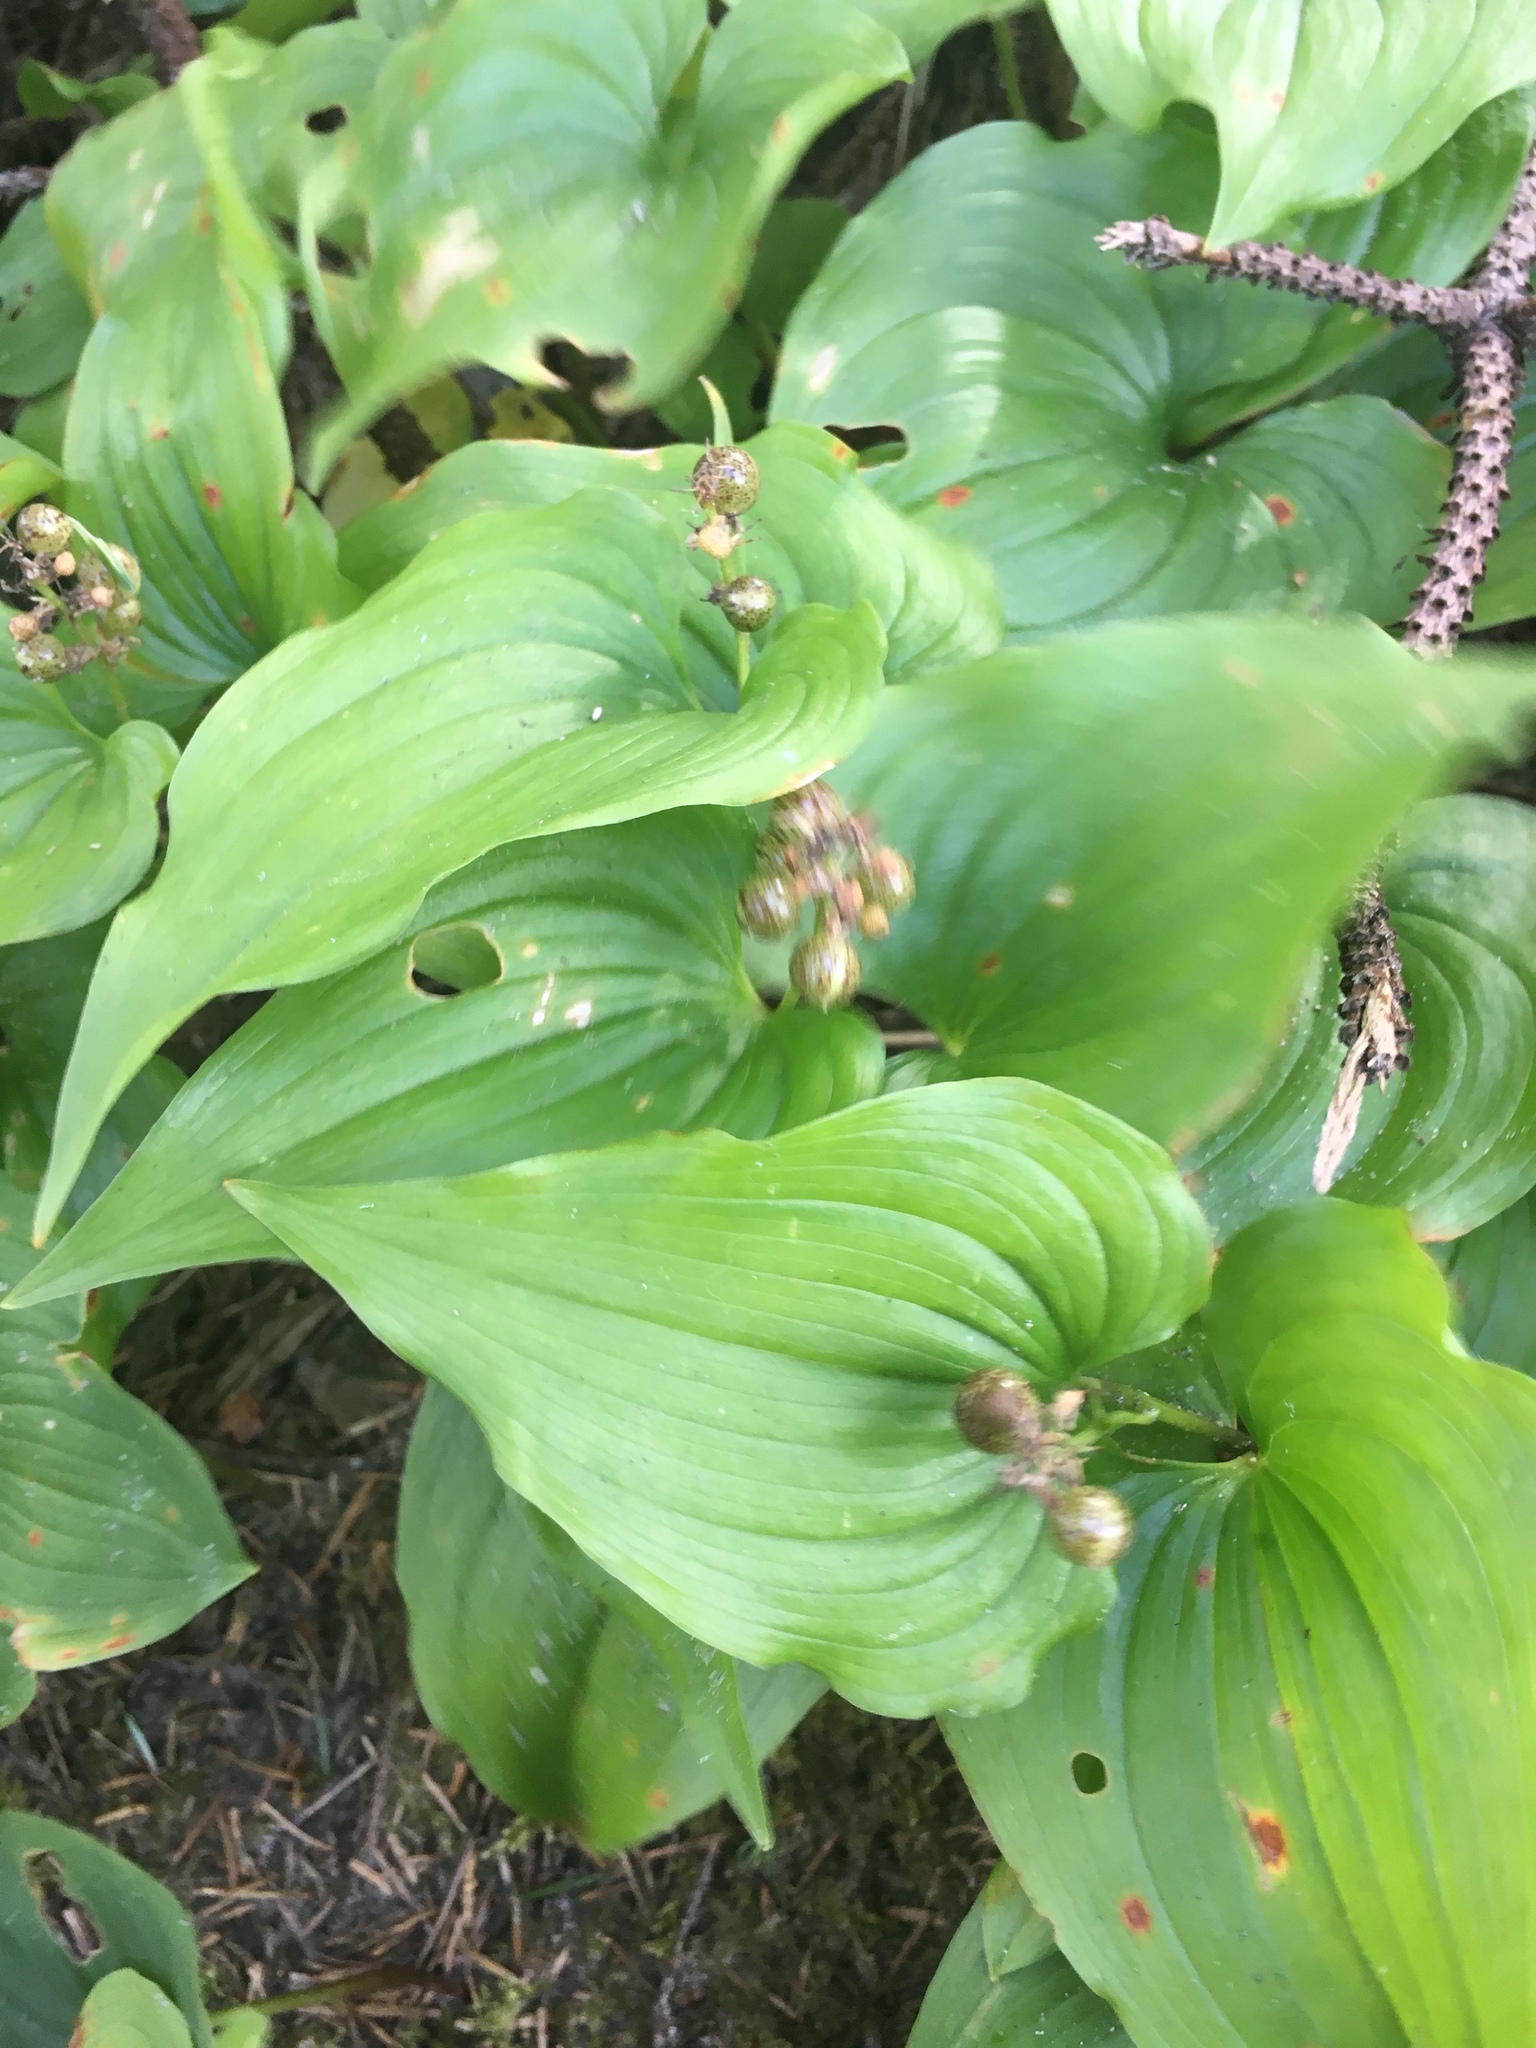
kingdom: Plantae
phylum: Tracheophyta
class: Liliopsida
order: Asparagales
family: Asparagaceae
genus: Maianthemum
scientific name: Maianthemum dilatatum
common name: False lily-of-the-valley
